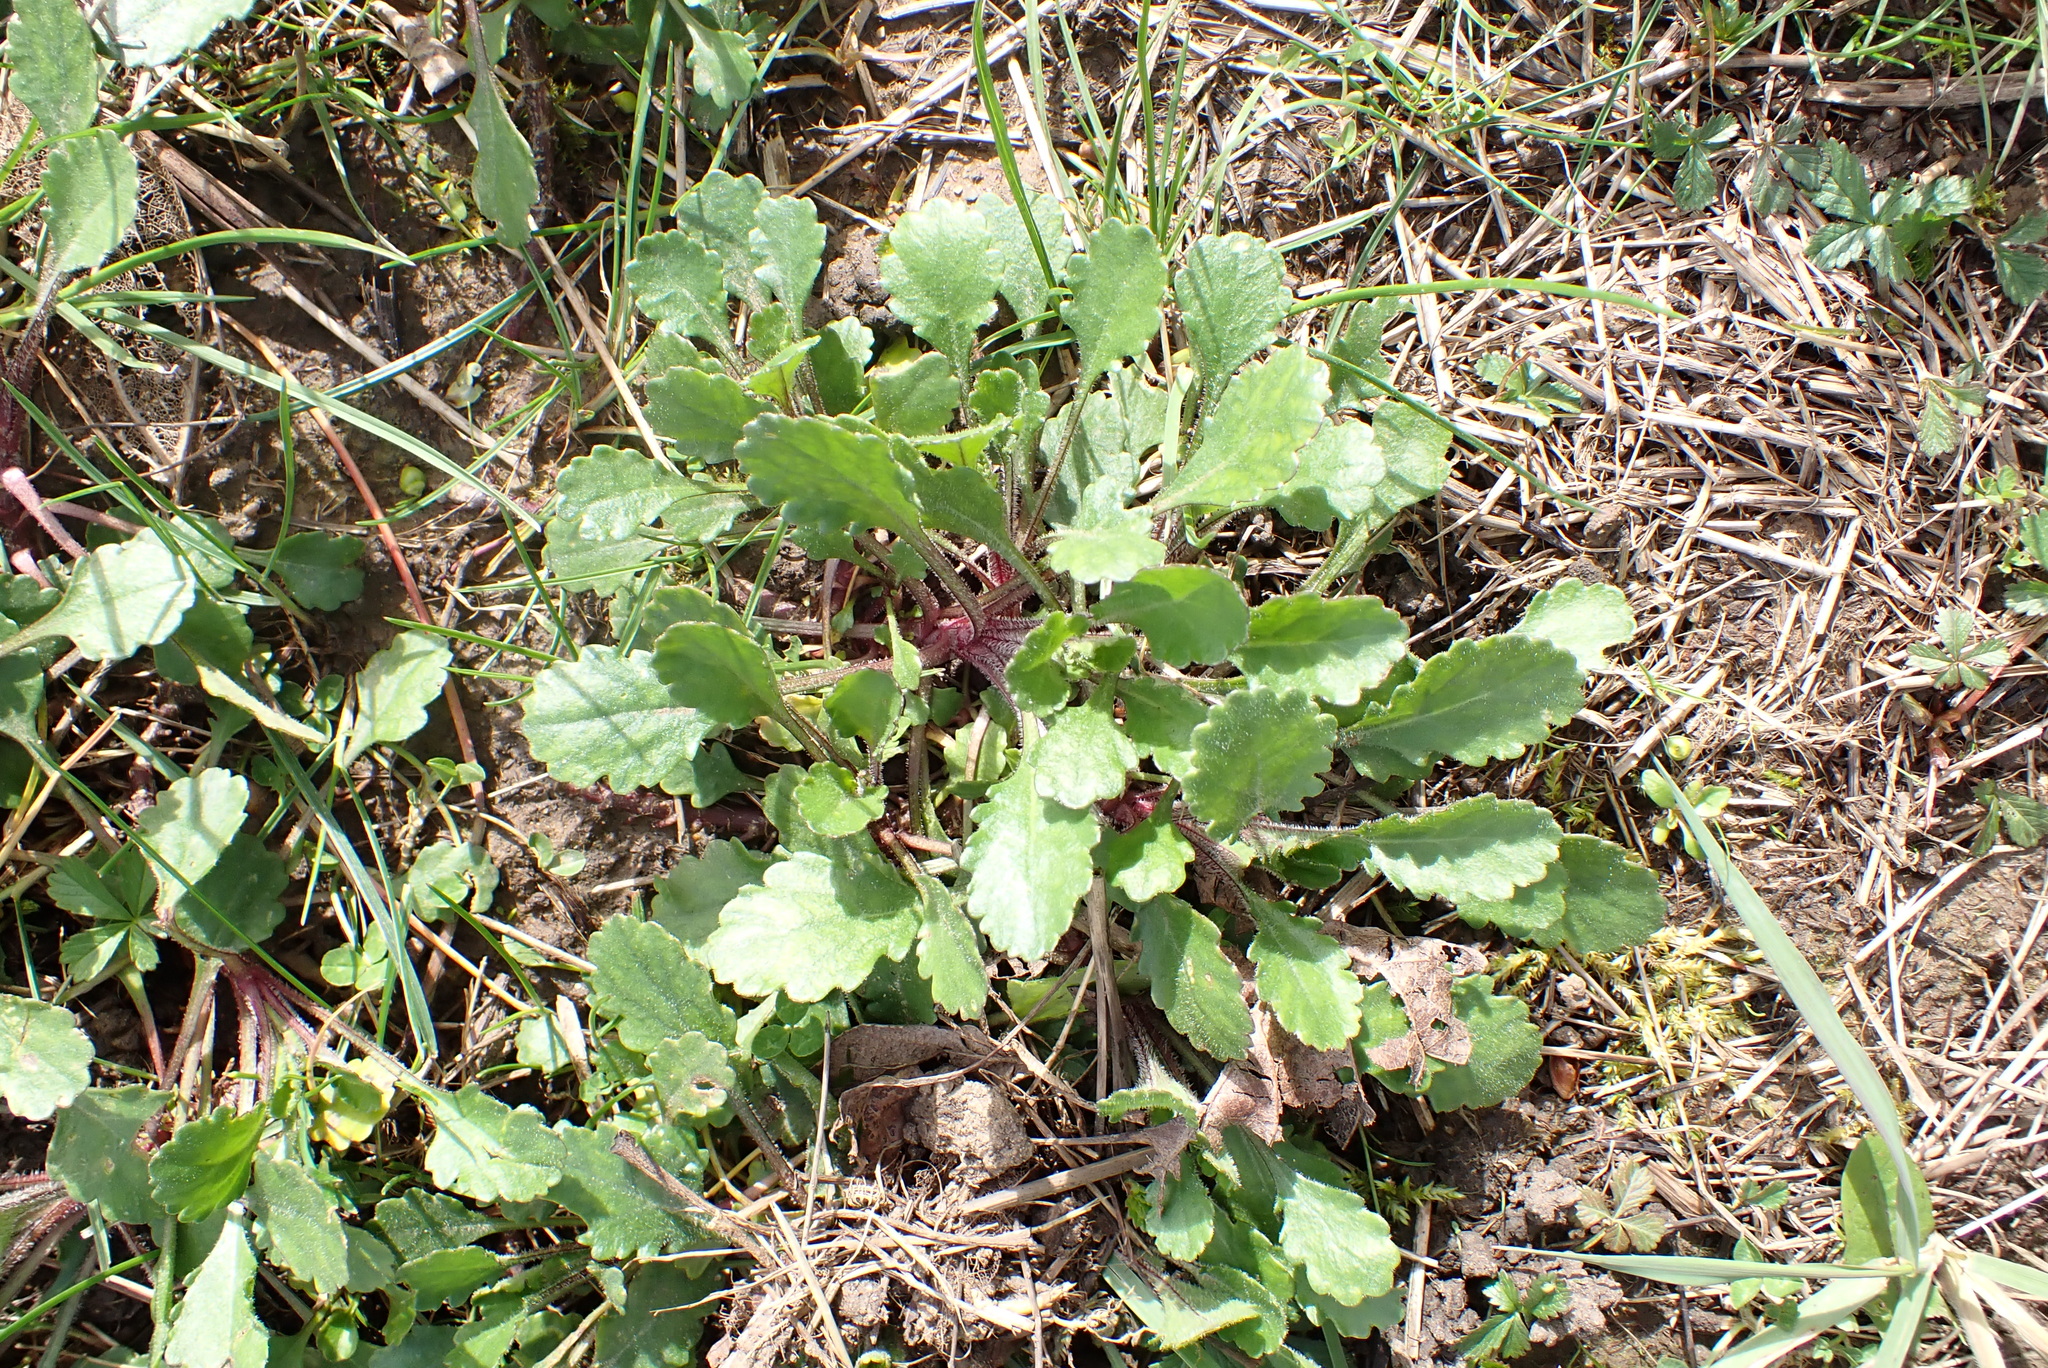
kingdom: Plantae
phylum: Tracheophyta
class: Magnoliopsida
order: Asterales
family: Asteraceae
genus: Leucanthemum
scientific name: Leucanthemum vulgare
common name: Oxeye daisy
